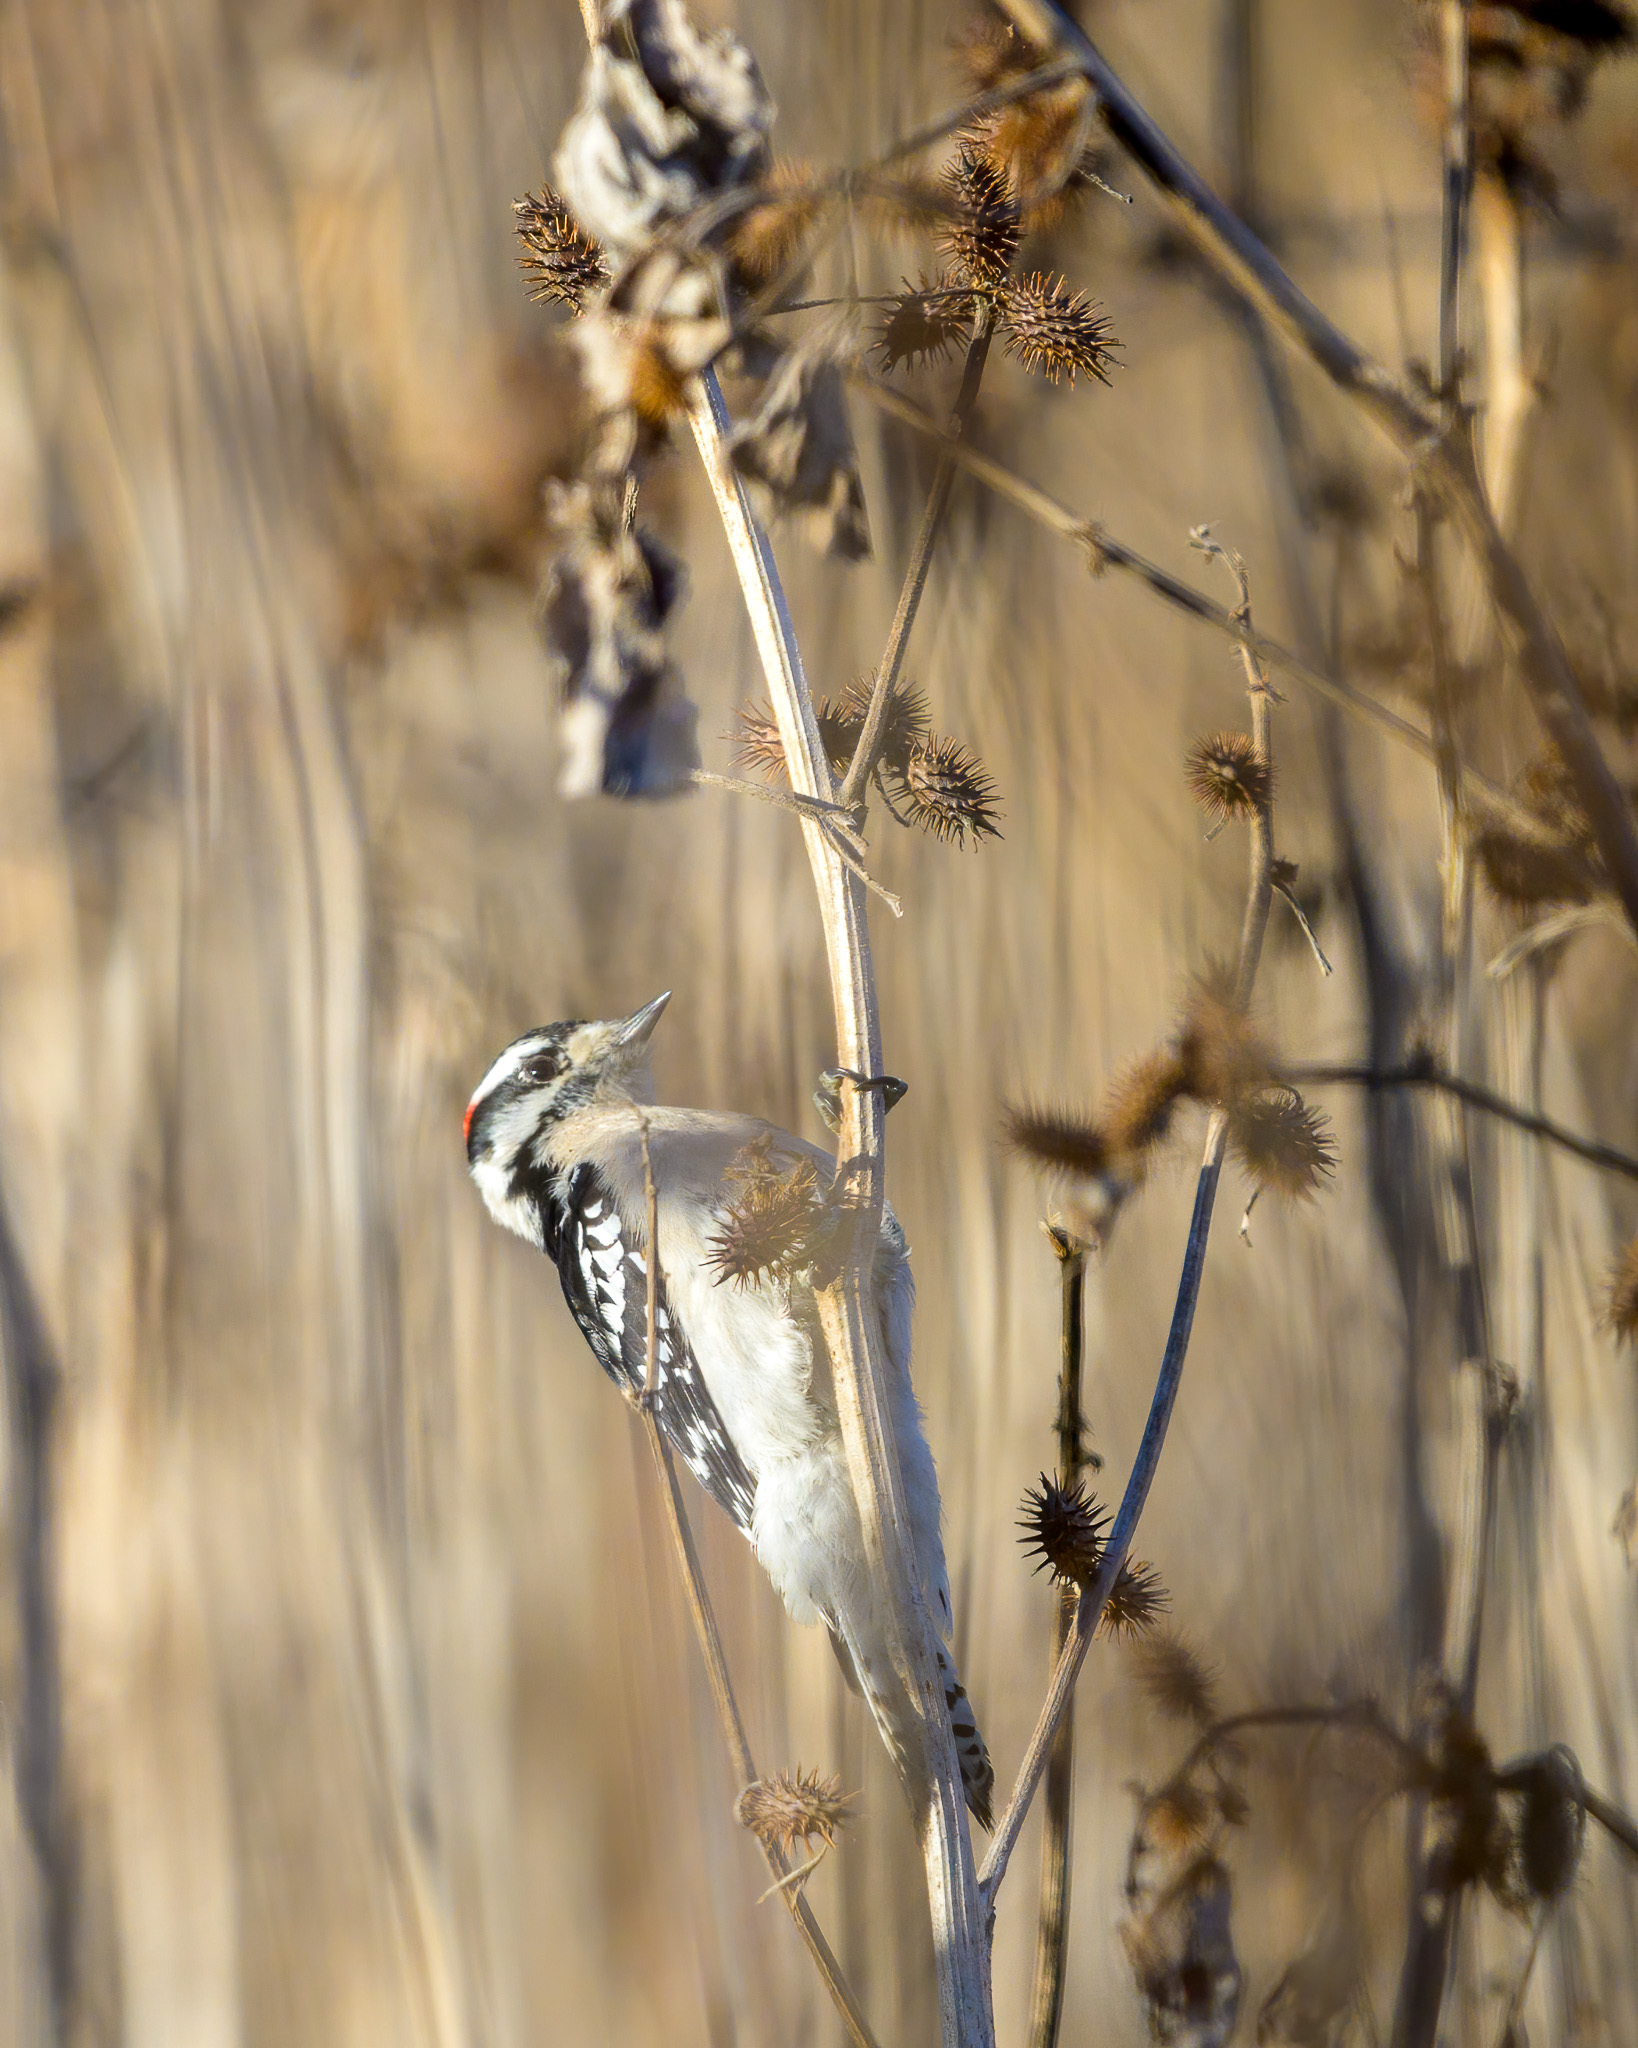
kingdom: Animalia
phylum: Chordata
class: Aves
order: Piciformes
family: Picidae
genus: Dryobates
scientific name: Dryobates pubescens
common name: Downy woodpecker
